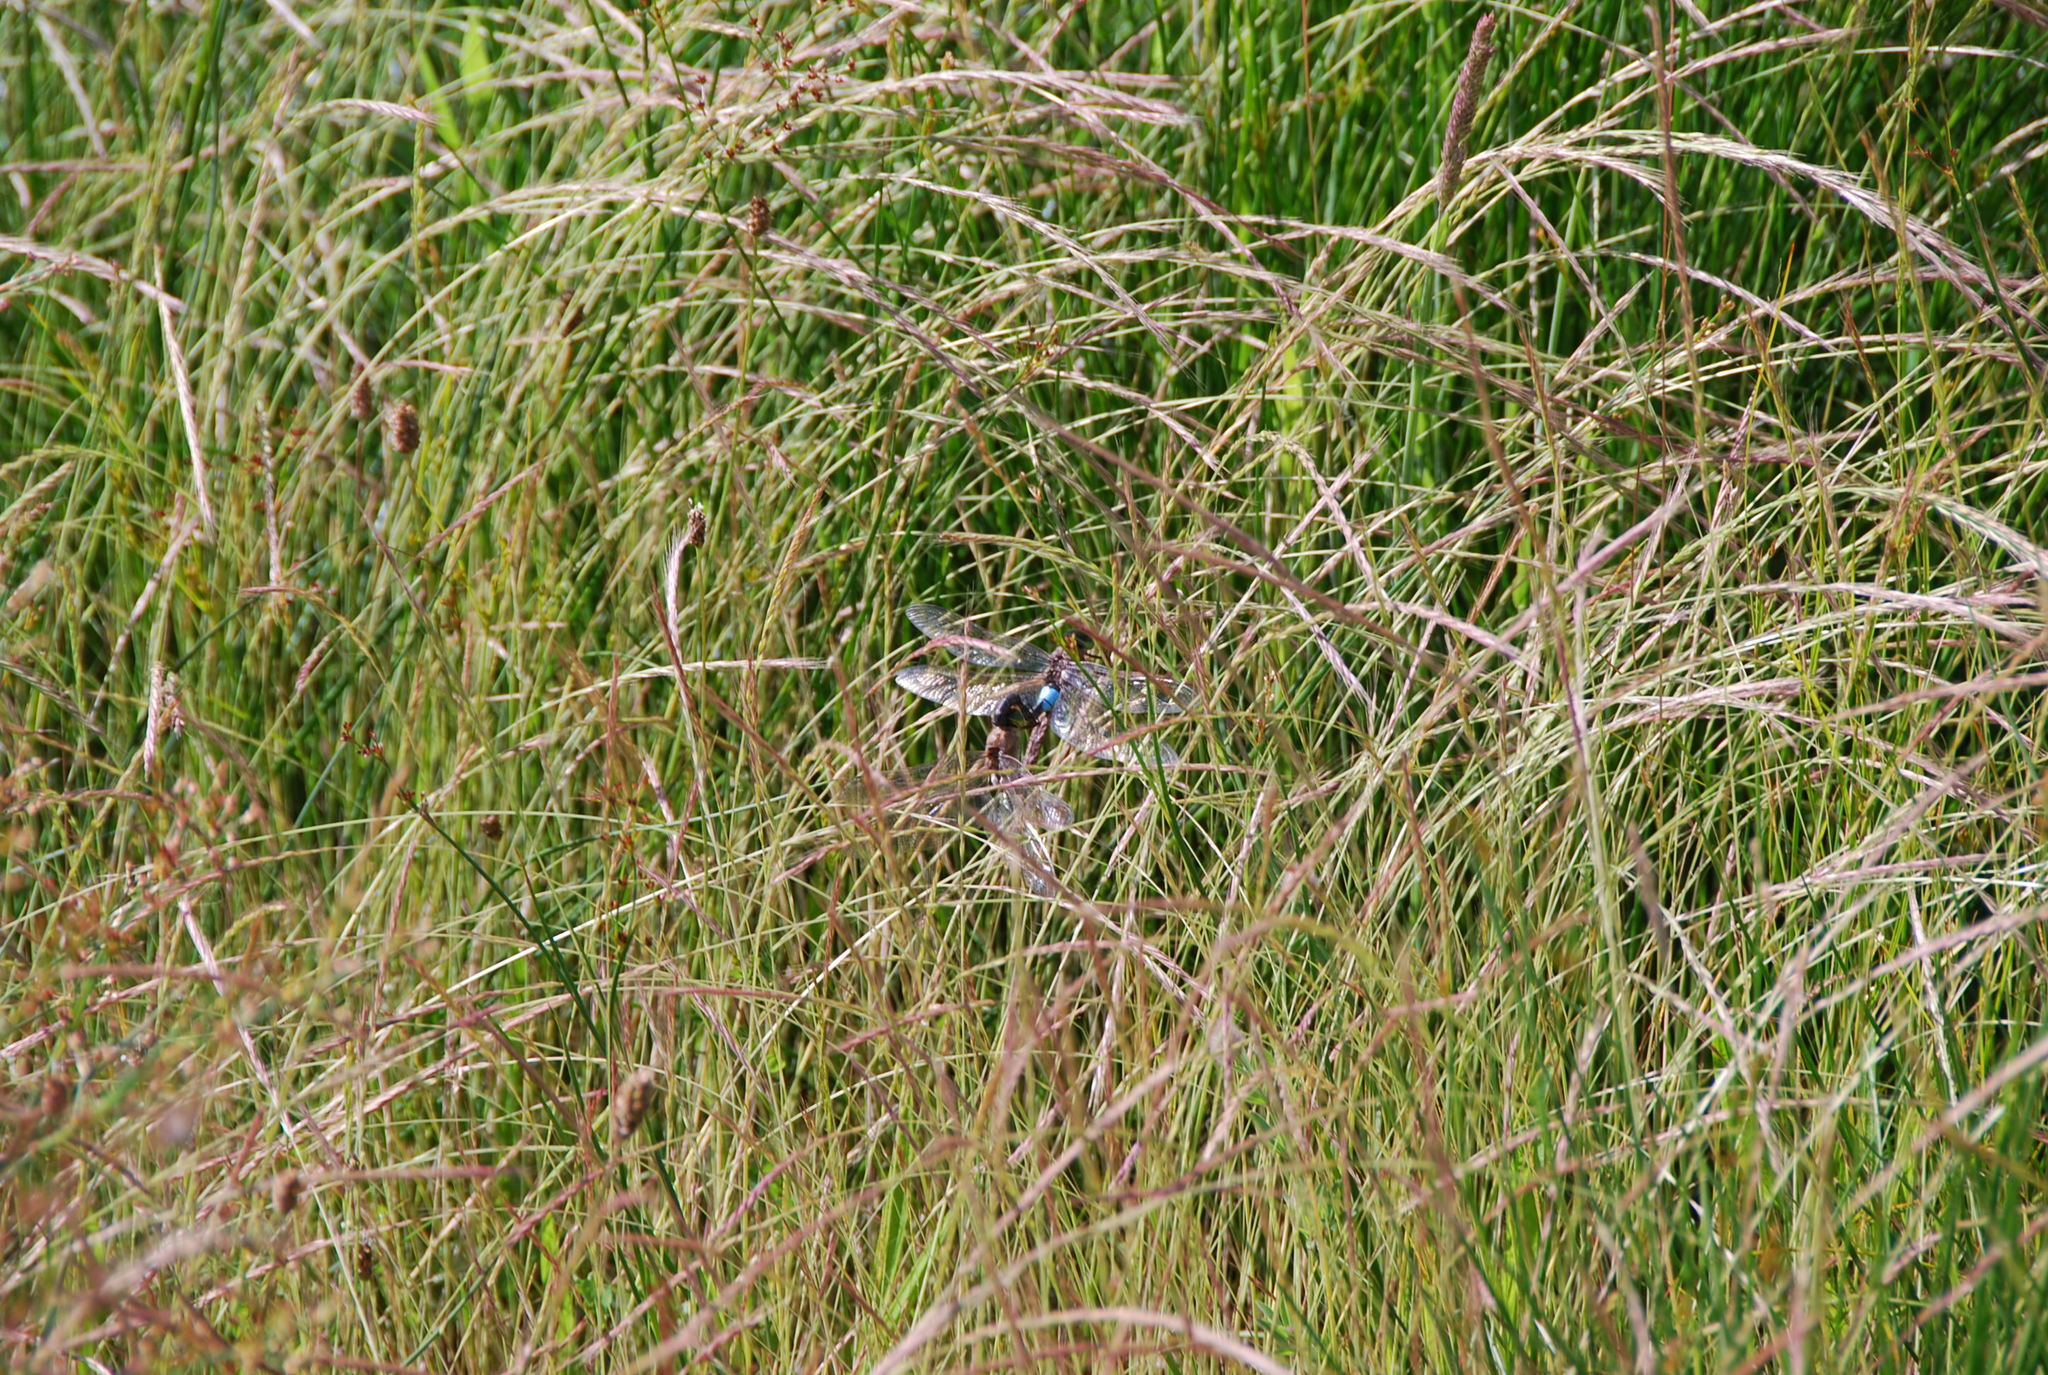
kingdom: Animalia
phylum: Arthropoda
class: Insecta
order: Odonata
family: Aeshnidae
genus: Anax
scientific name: Anax parthenope
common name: Lesser emperor
